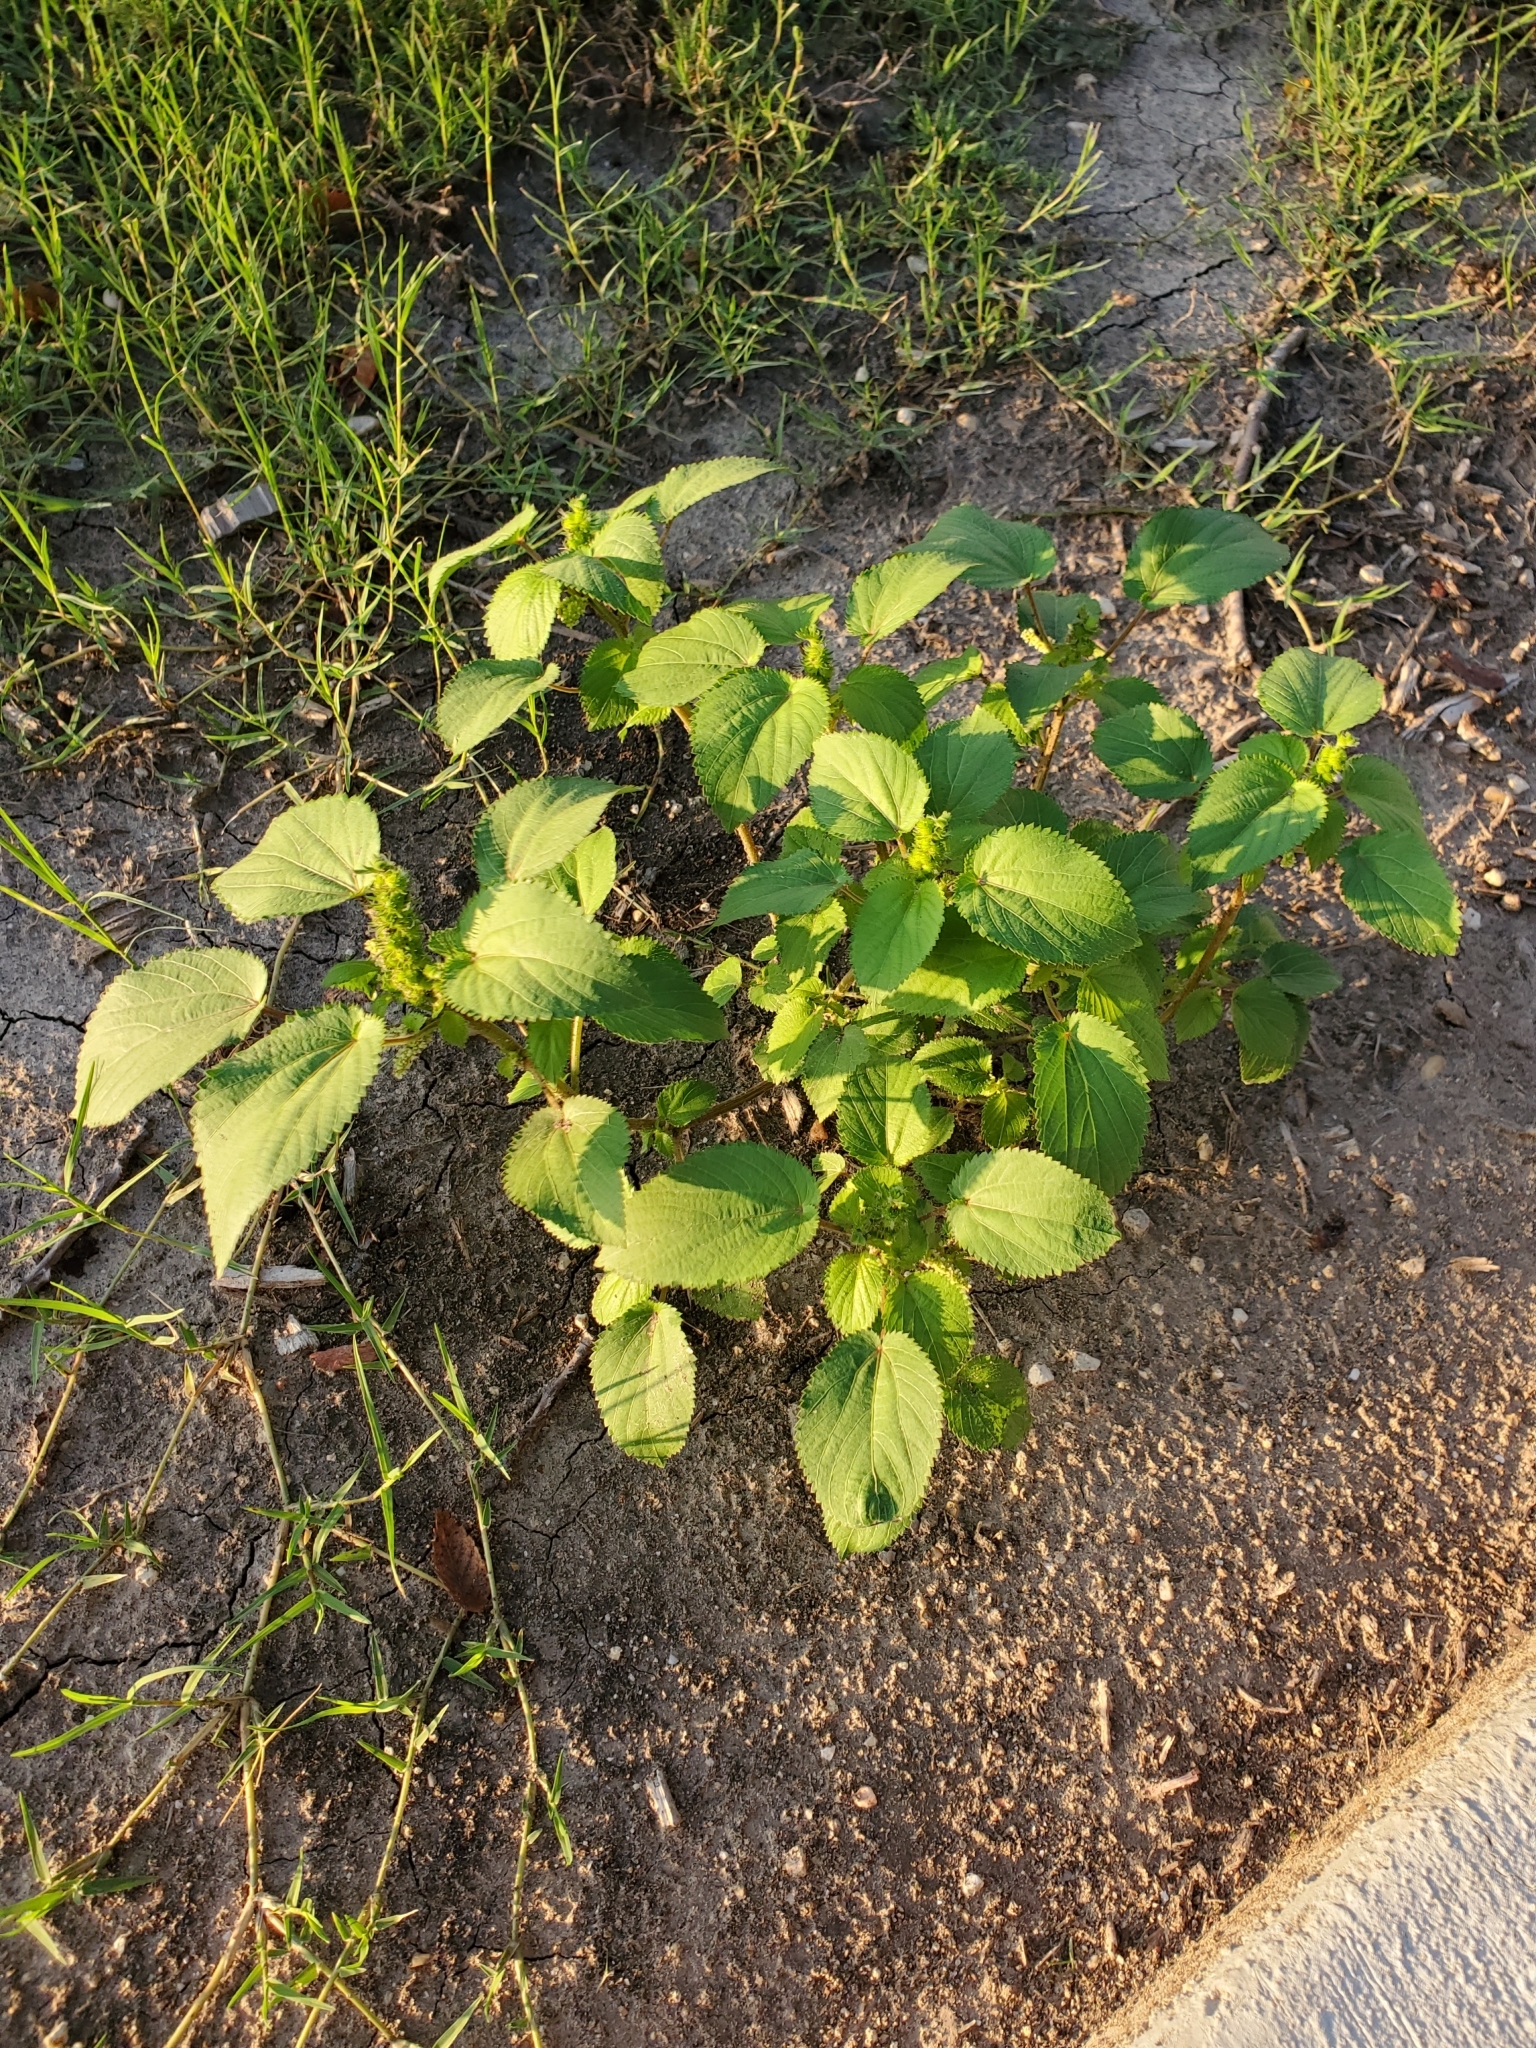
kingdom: Plantae
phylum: Tracheophyta
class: Magnoliopsida
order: Malpighiales
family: Euphorbiaceae
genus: Acalypha
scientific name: Acalypha ostryifolia
